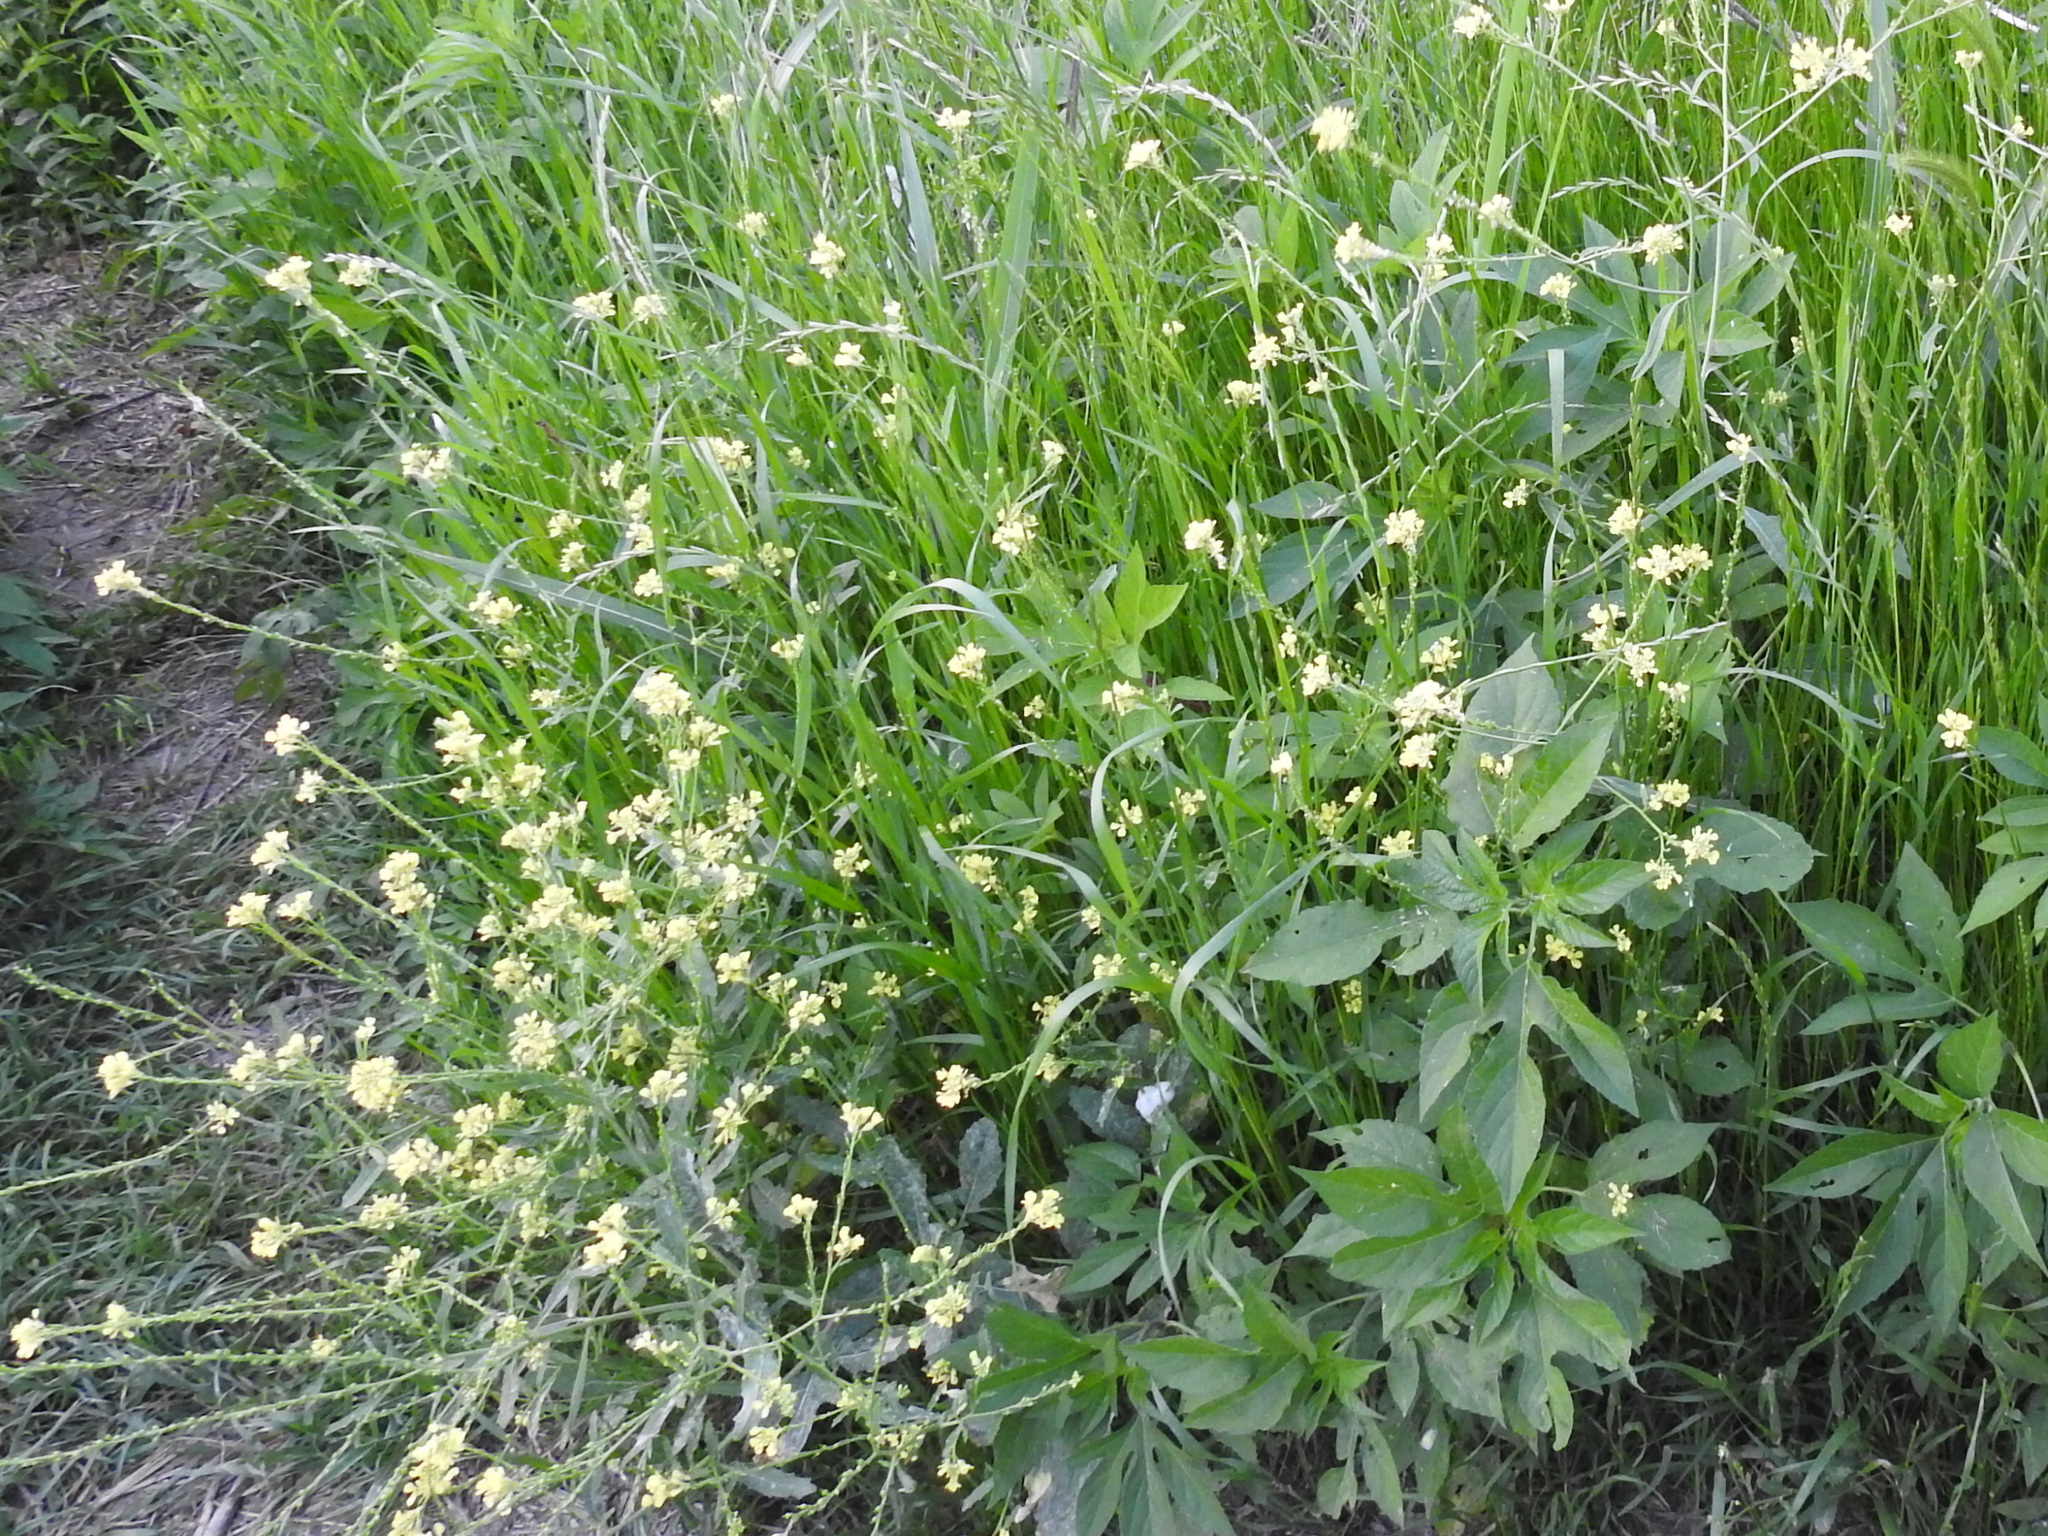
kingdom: Plantae
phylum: Tracheophyta
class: Magnoliopsida
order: Brassicales
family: Brassicaceae
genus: Rapistrum
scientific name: Rapistrum rugosum
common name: Annual bastardcabbage
